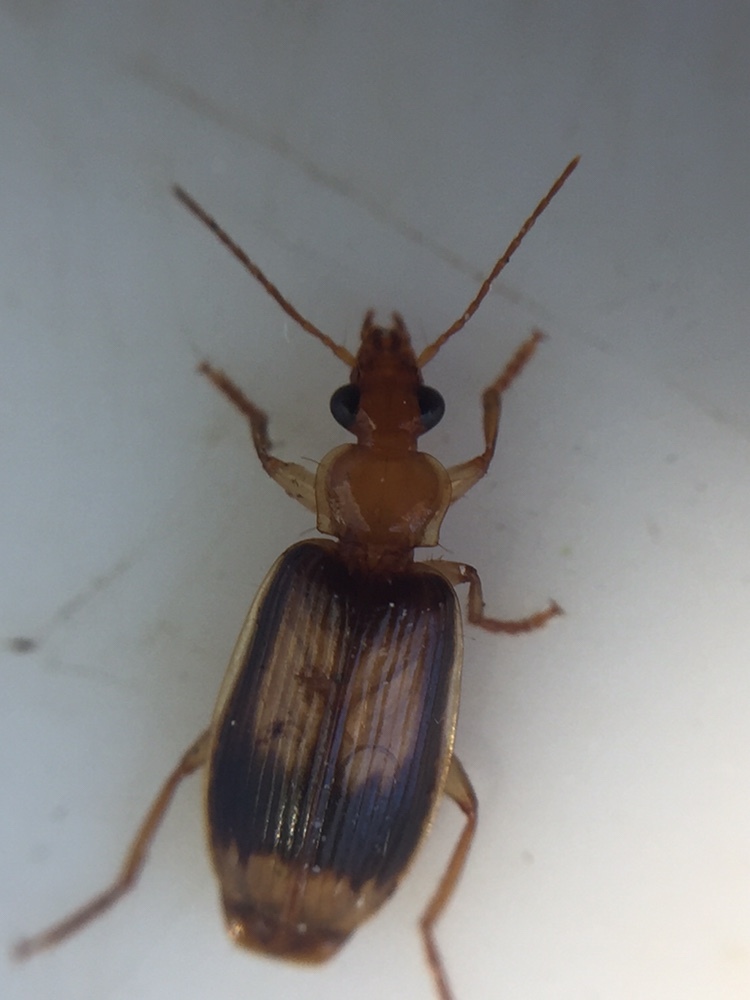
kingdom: Animalia
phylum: Arthropoda
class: Insecta
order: Coleoptera
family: Carabidae
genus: Trigonothops
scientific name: Trigonothops pacificus
